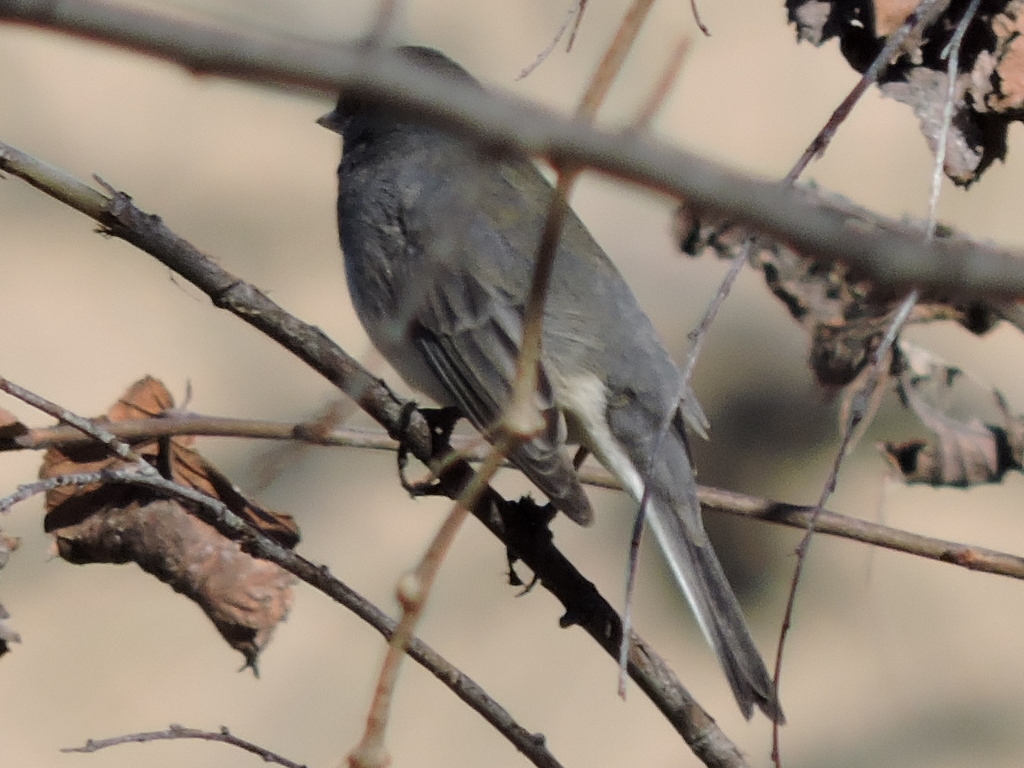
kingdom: Animalia
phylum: Chordata
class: Aves
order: Passeriformes
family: Passerellidae
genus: Junco
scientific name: Junco hyemalis
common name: Dark-eyed junco
